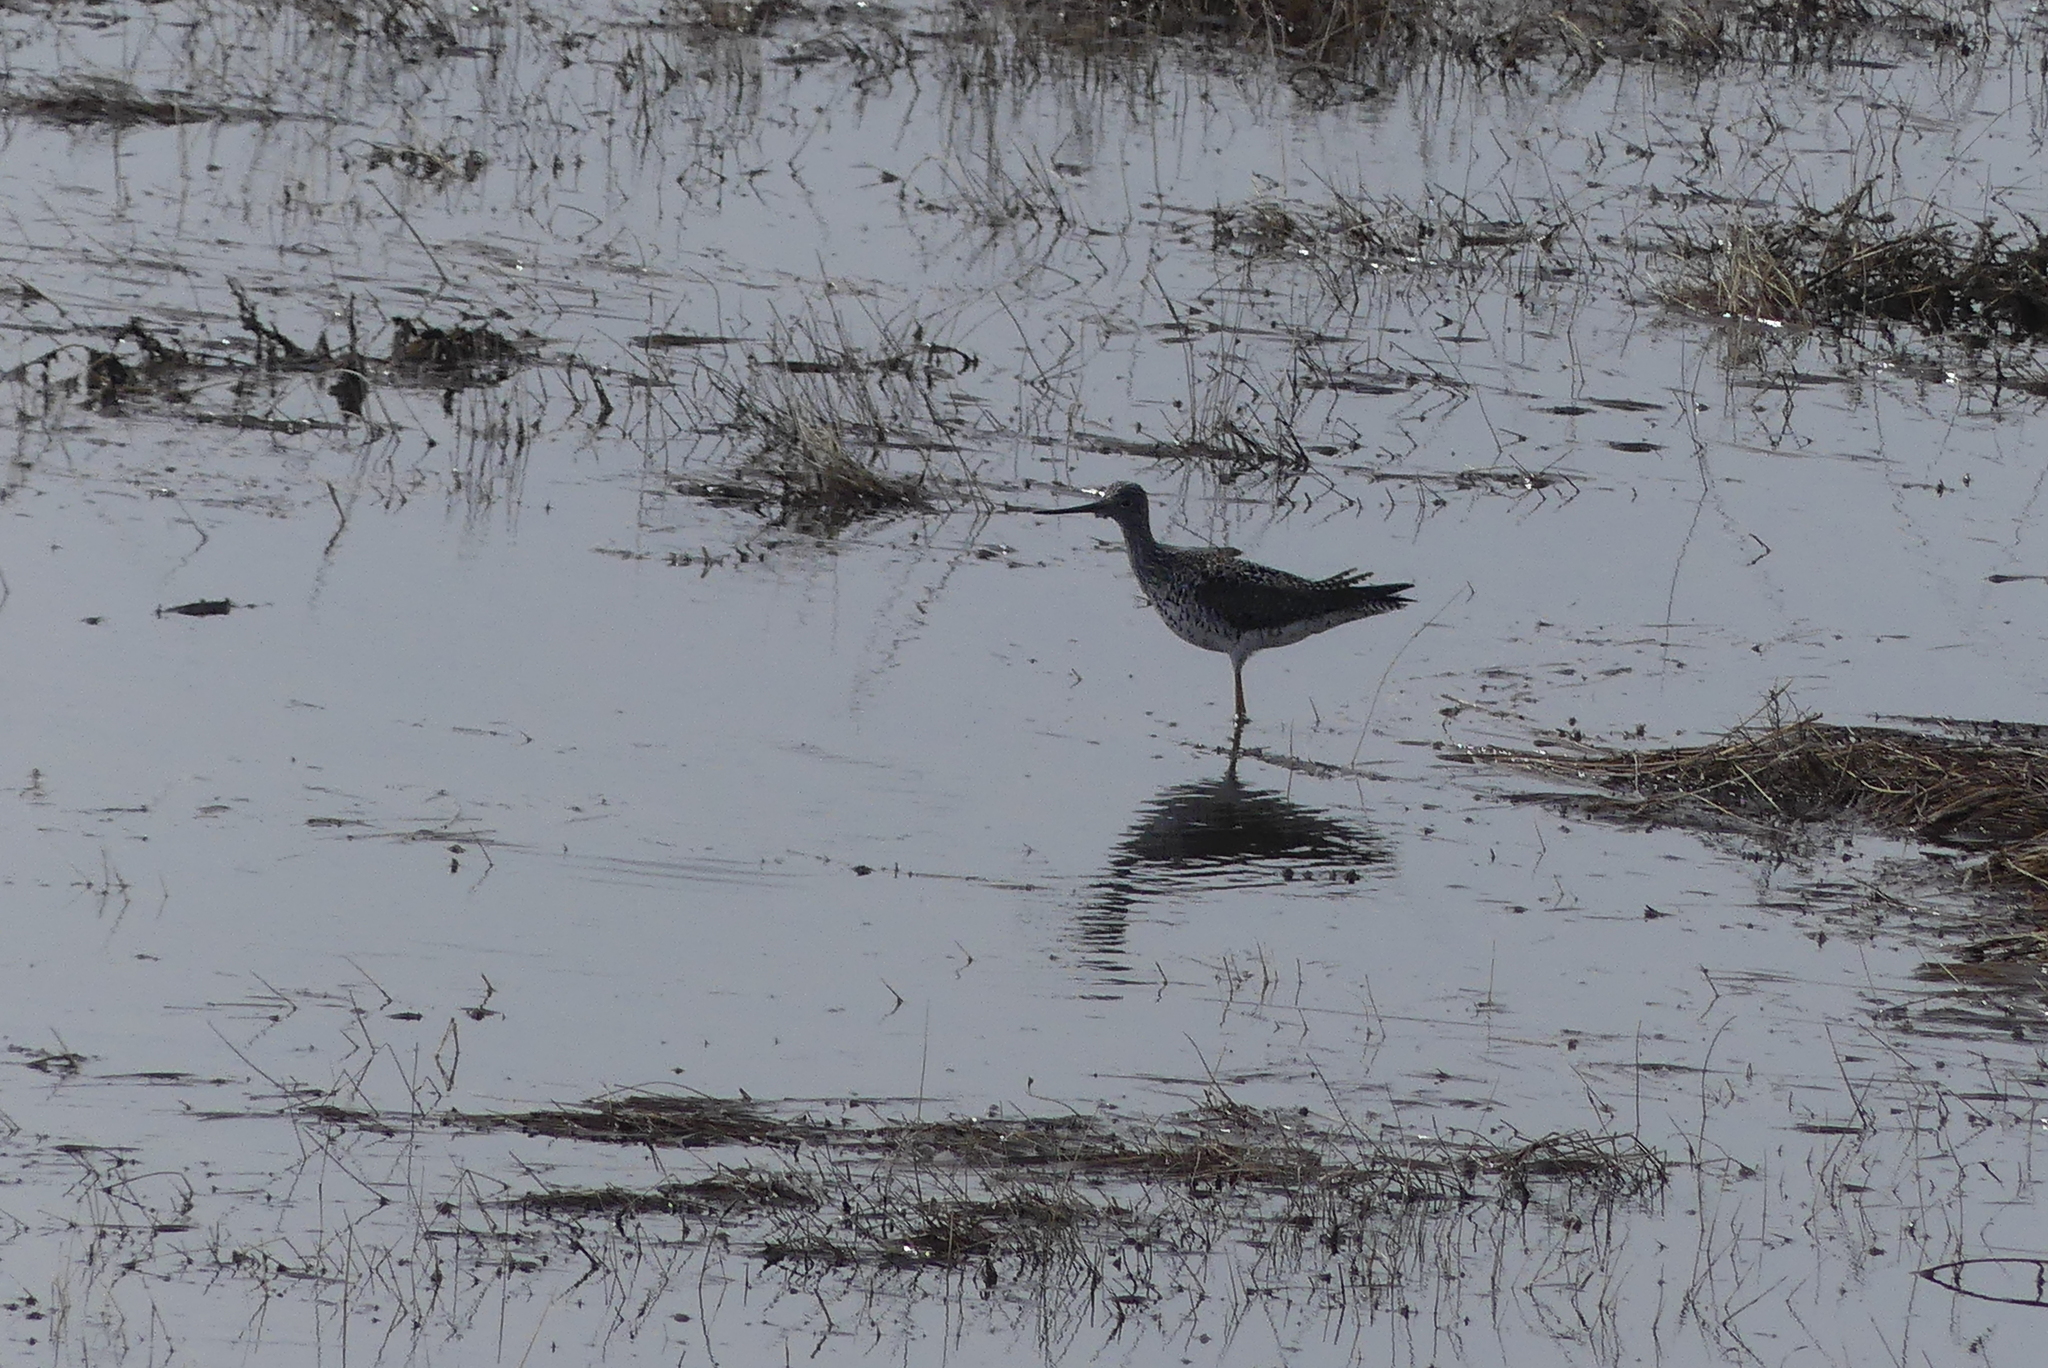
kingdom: Animalia
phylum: Chordata
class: Aves
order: Charadriiformes
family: Scolopacidae
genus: Tringa
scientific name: Tringa melanoleuca
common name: Greater yellowlegs
